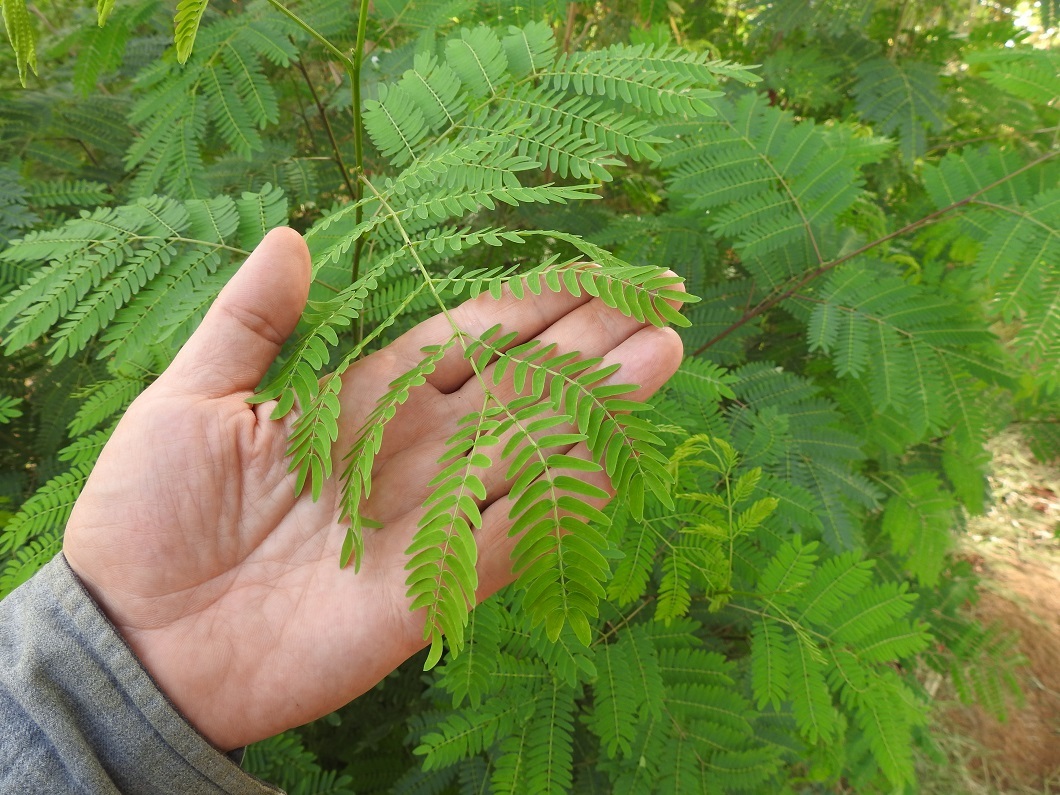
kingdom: Plantae
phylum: Tracheophyta
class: Magnoliopsida
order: Fabales
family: Fabaceae
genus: Leucaena
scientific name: Leucaena leucocephala
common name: White leadtree
